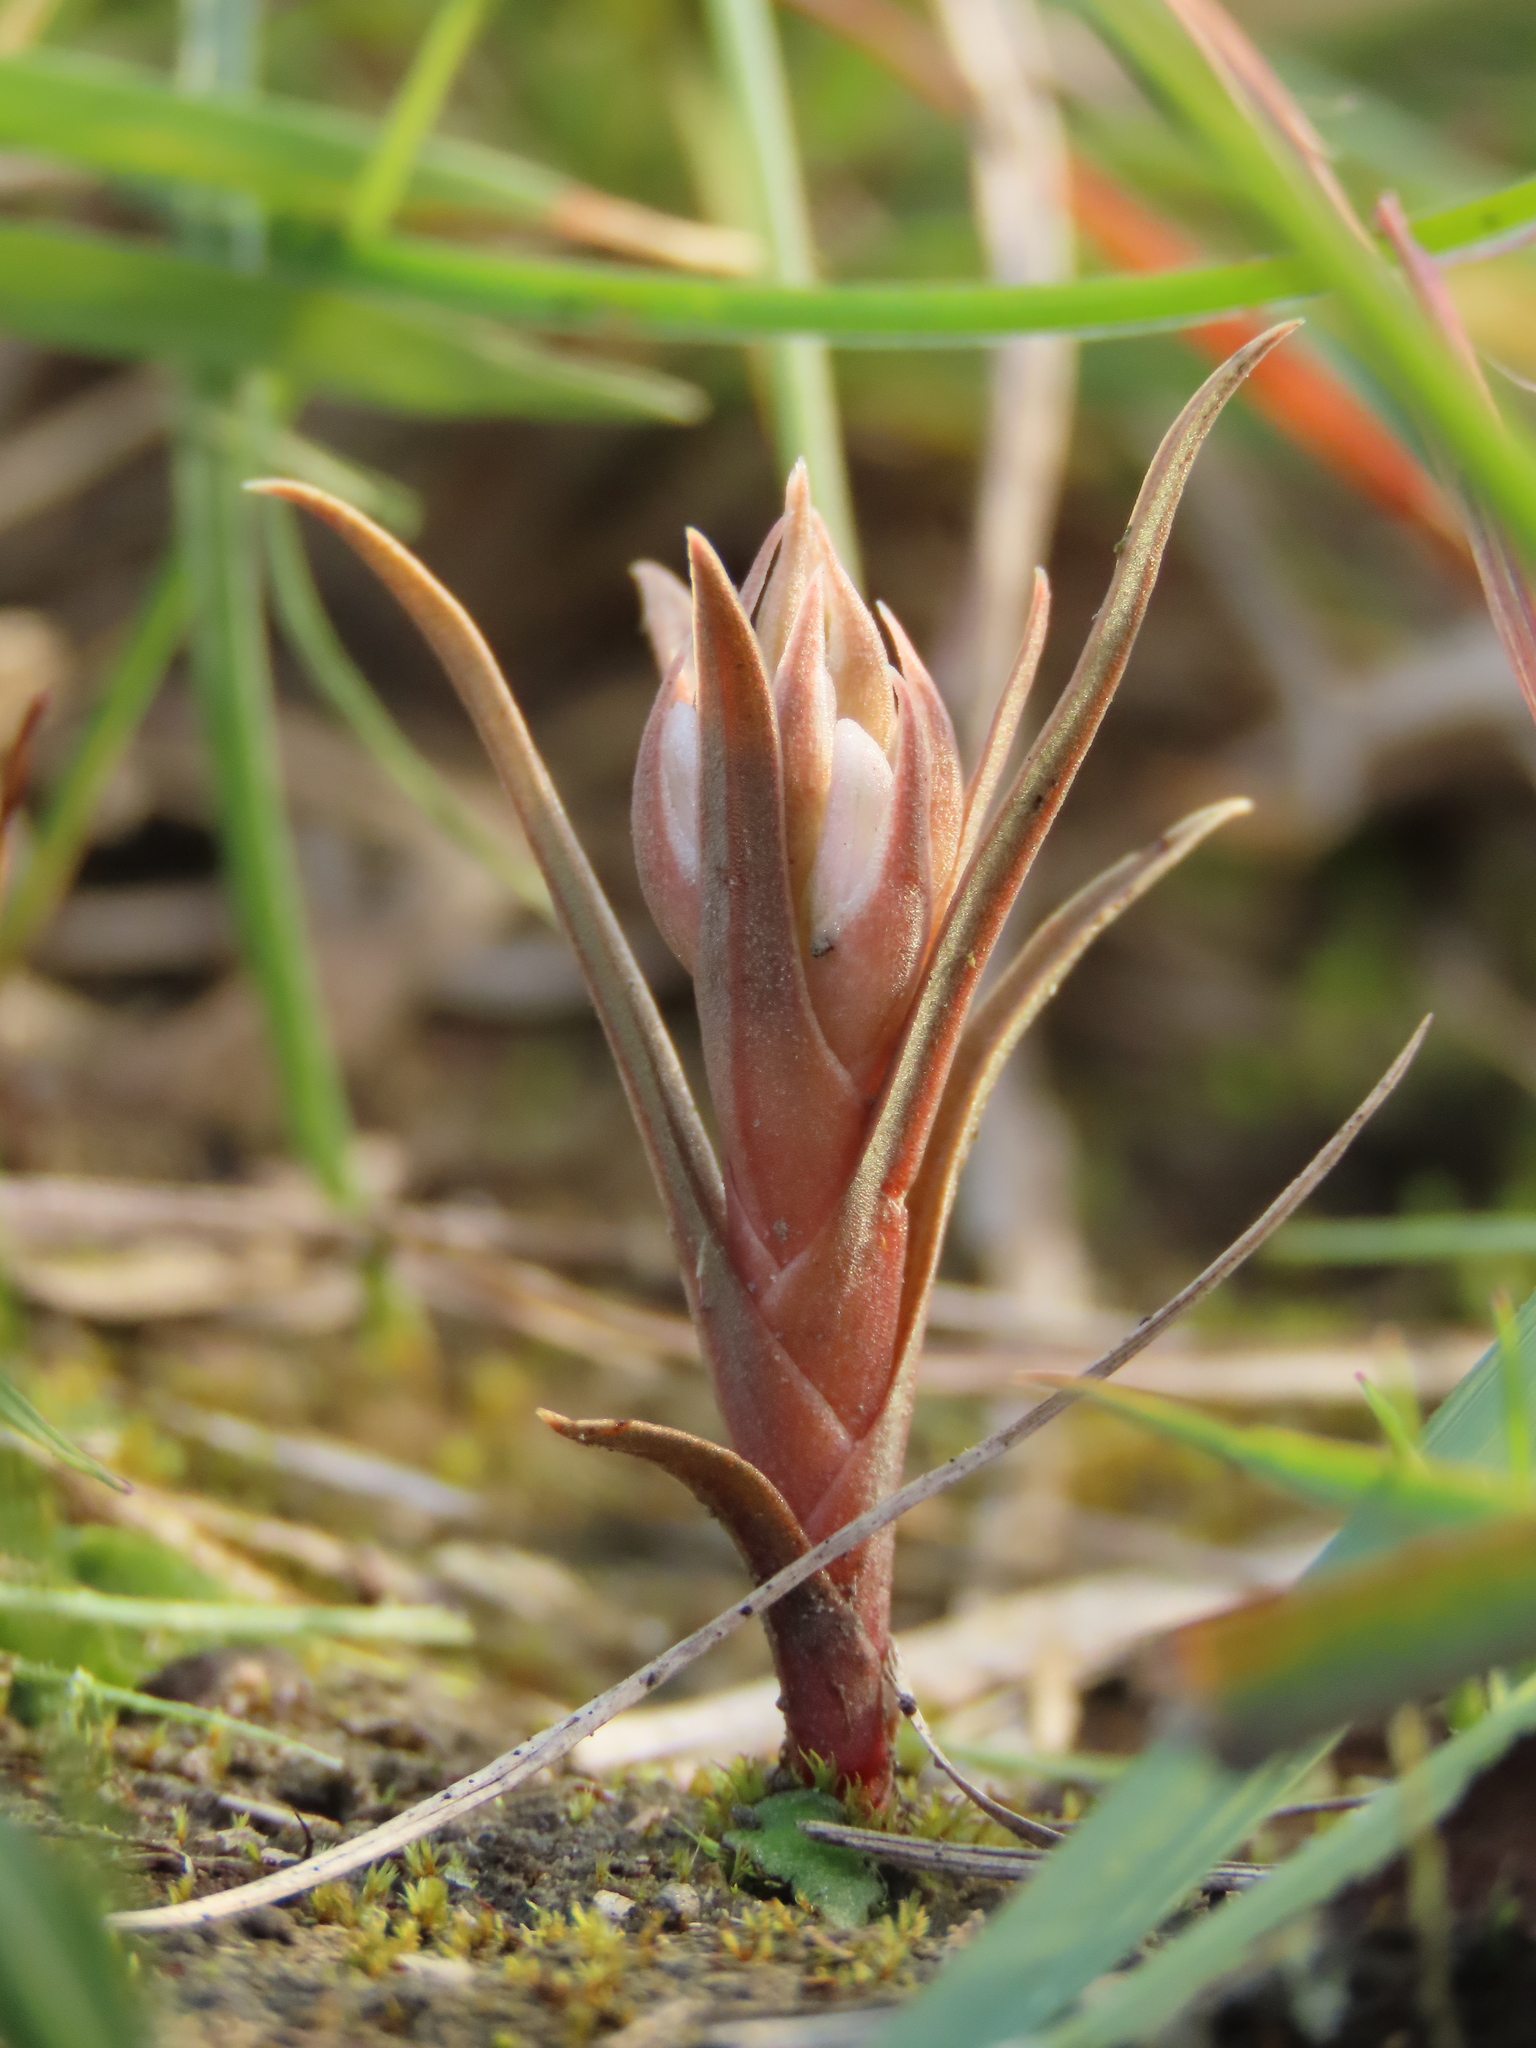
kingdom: Plantae
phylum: Tracheophyta
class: Liliopsida
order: Asparagales
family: Orchidaceae
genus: Zeuxine
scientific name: Zeuxine strateumatica
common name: Soldier's orchid
